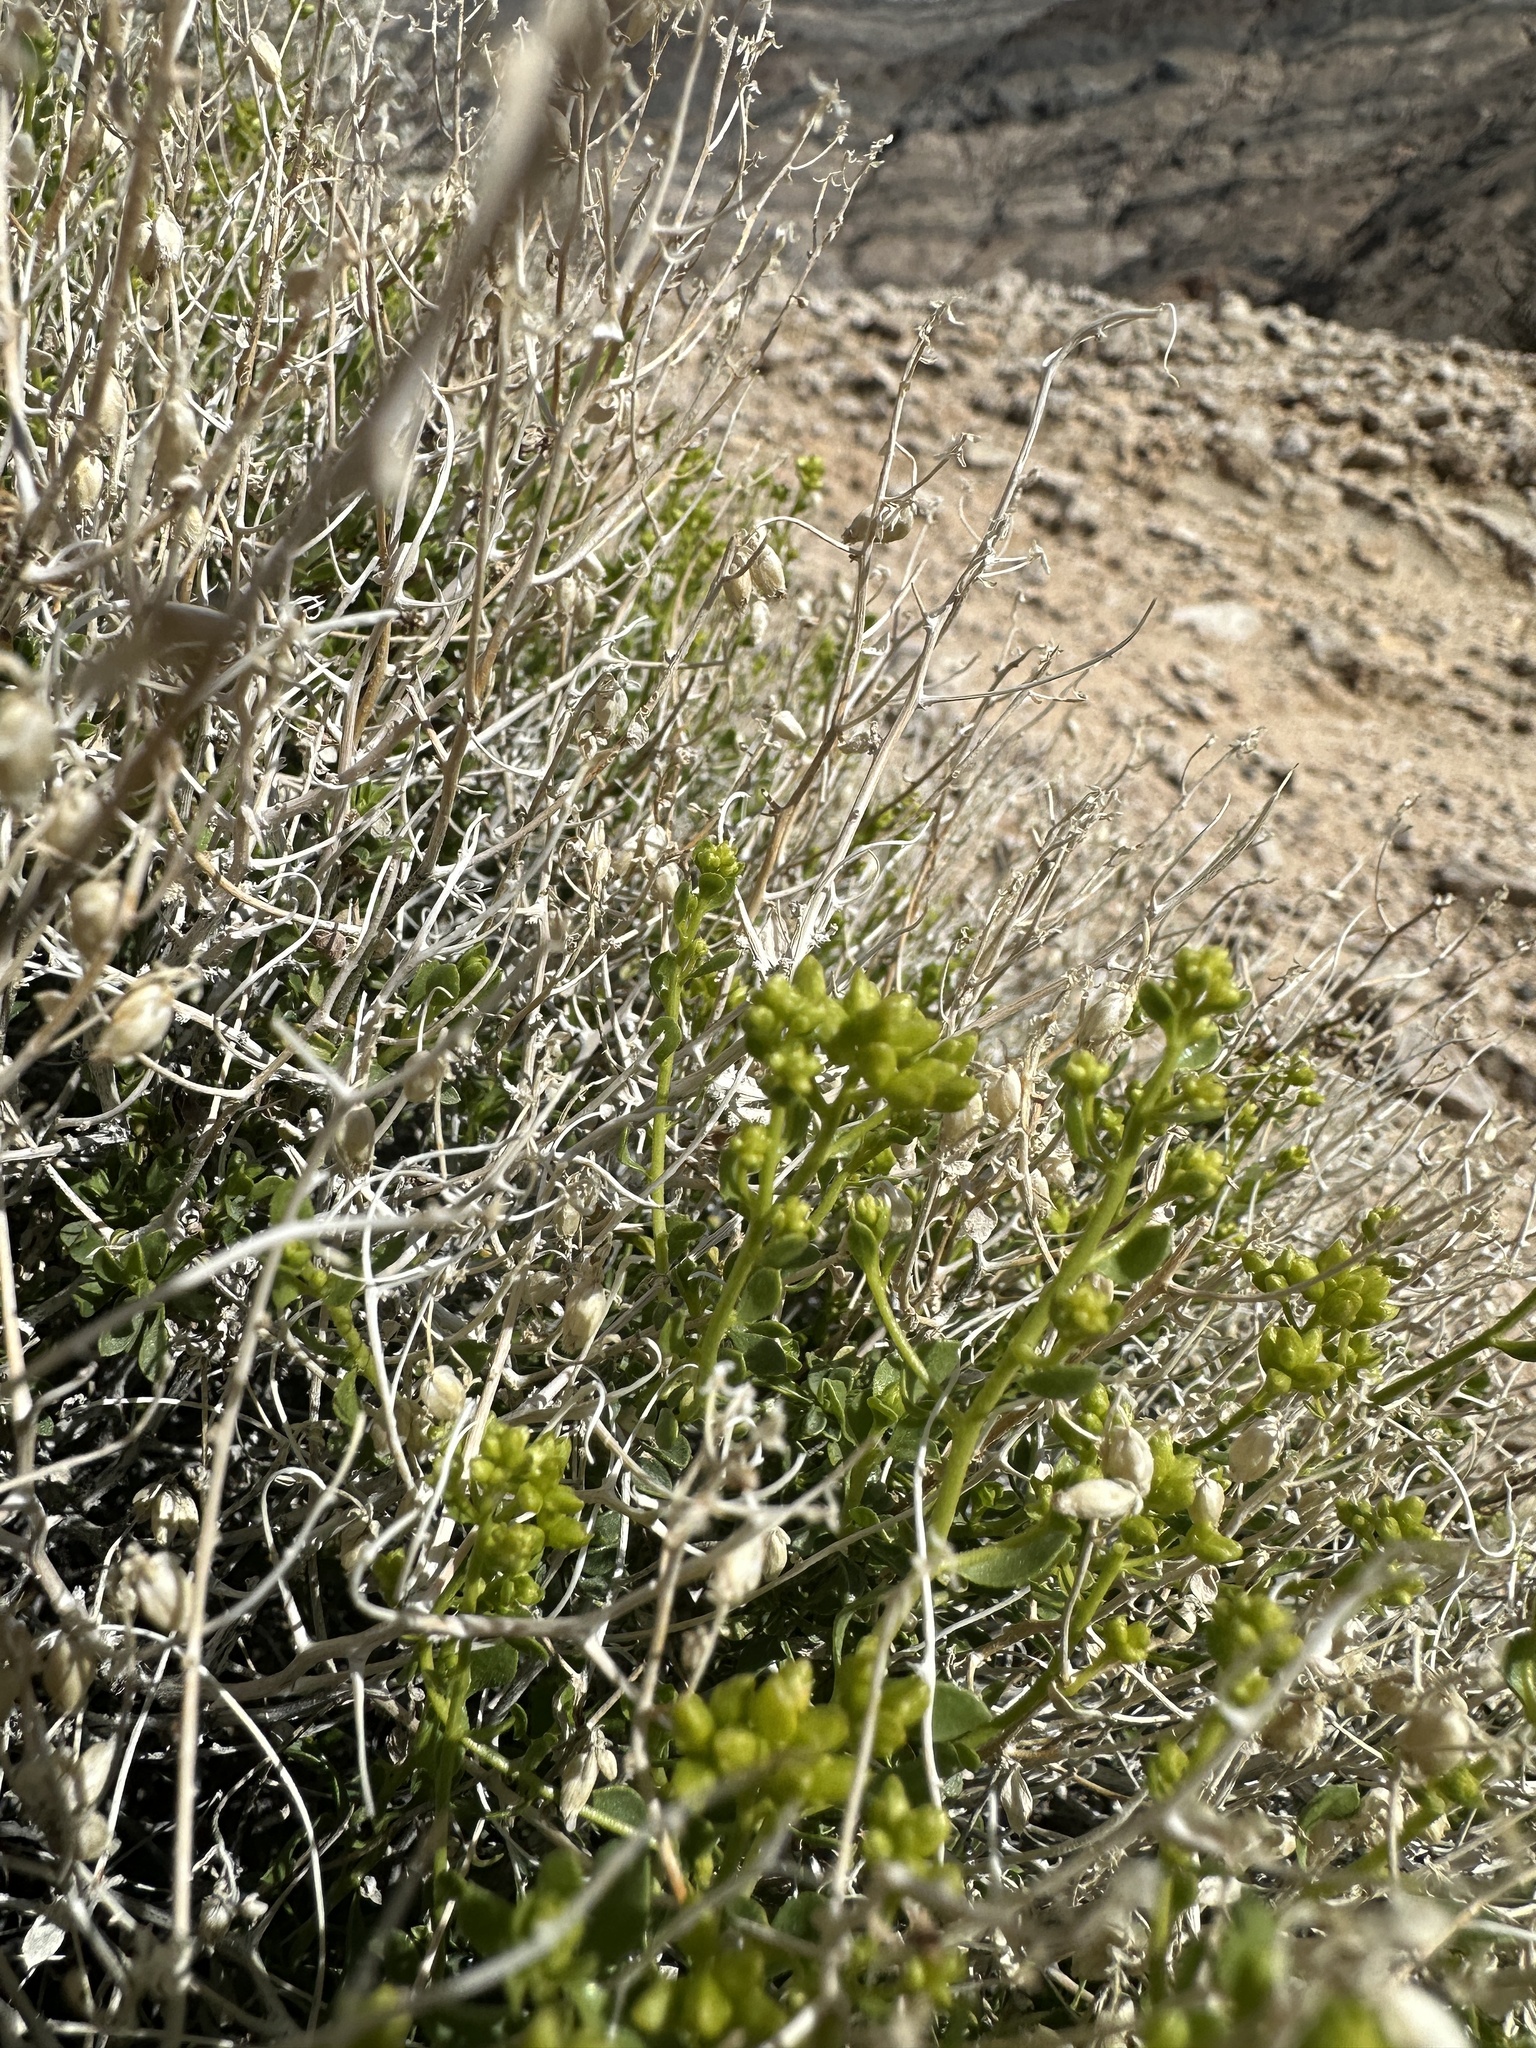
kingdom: Plantae
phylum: Tracheophyta
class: Magnoliopsida
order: Asterales
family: Asteraceae
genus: Amphipappus
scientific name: Amphipappus fremontii
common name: Fremont's chaffbush
